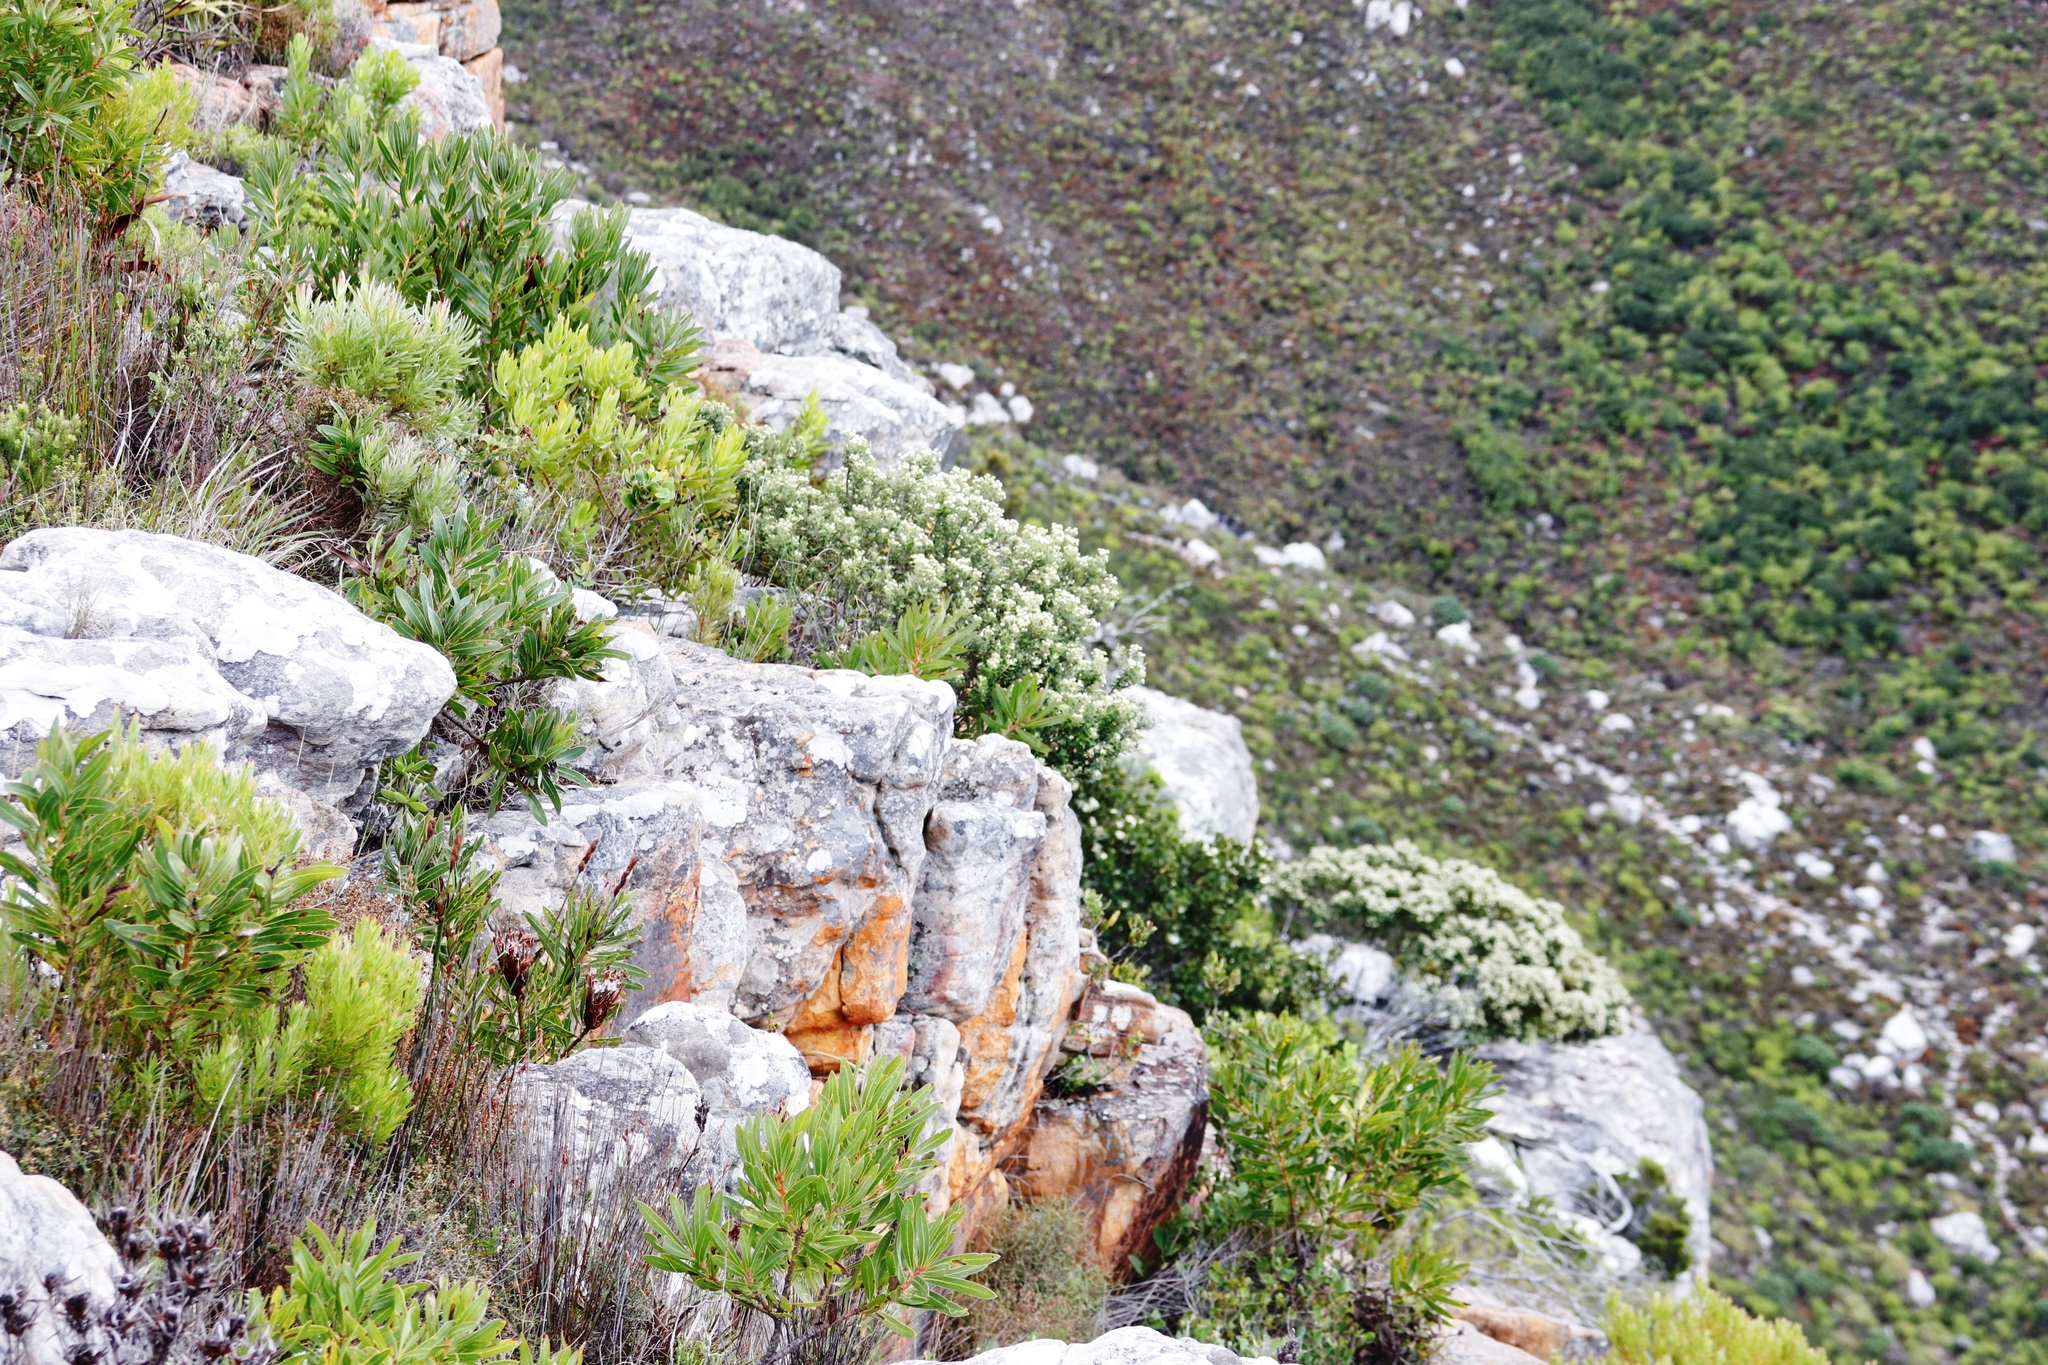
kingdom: Plantae
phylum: Tracheophyta
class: Magnoliopsida
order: Proteales
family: Proteaceae
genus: Protea
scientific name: Protea lepidocarpodendron
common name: Black-bearded protea
